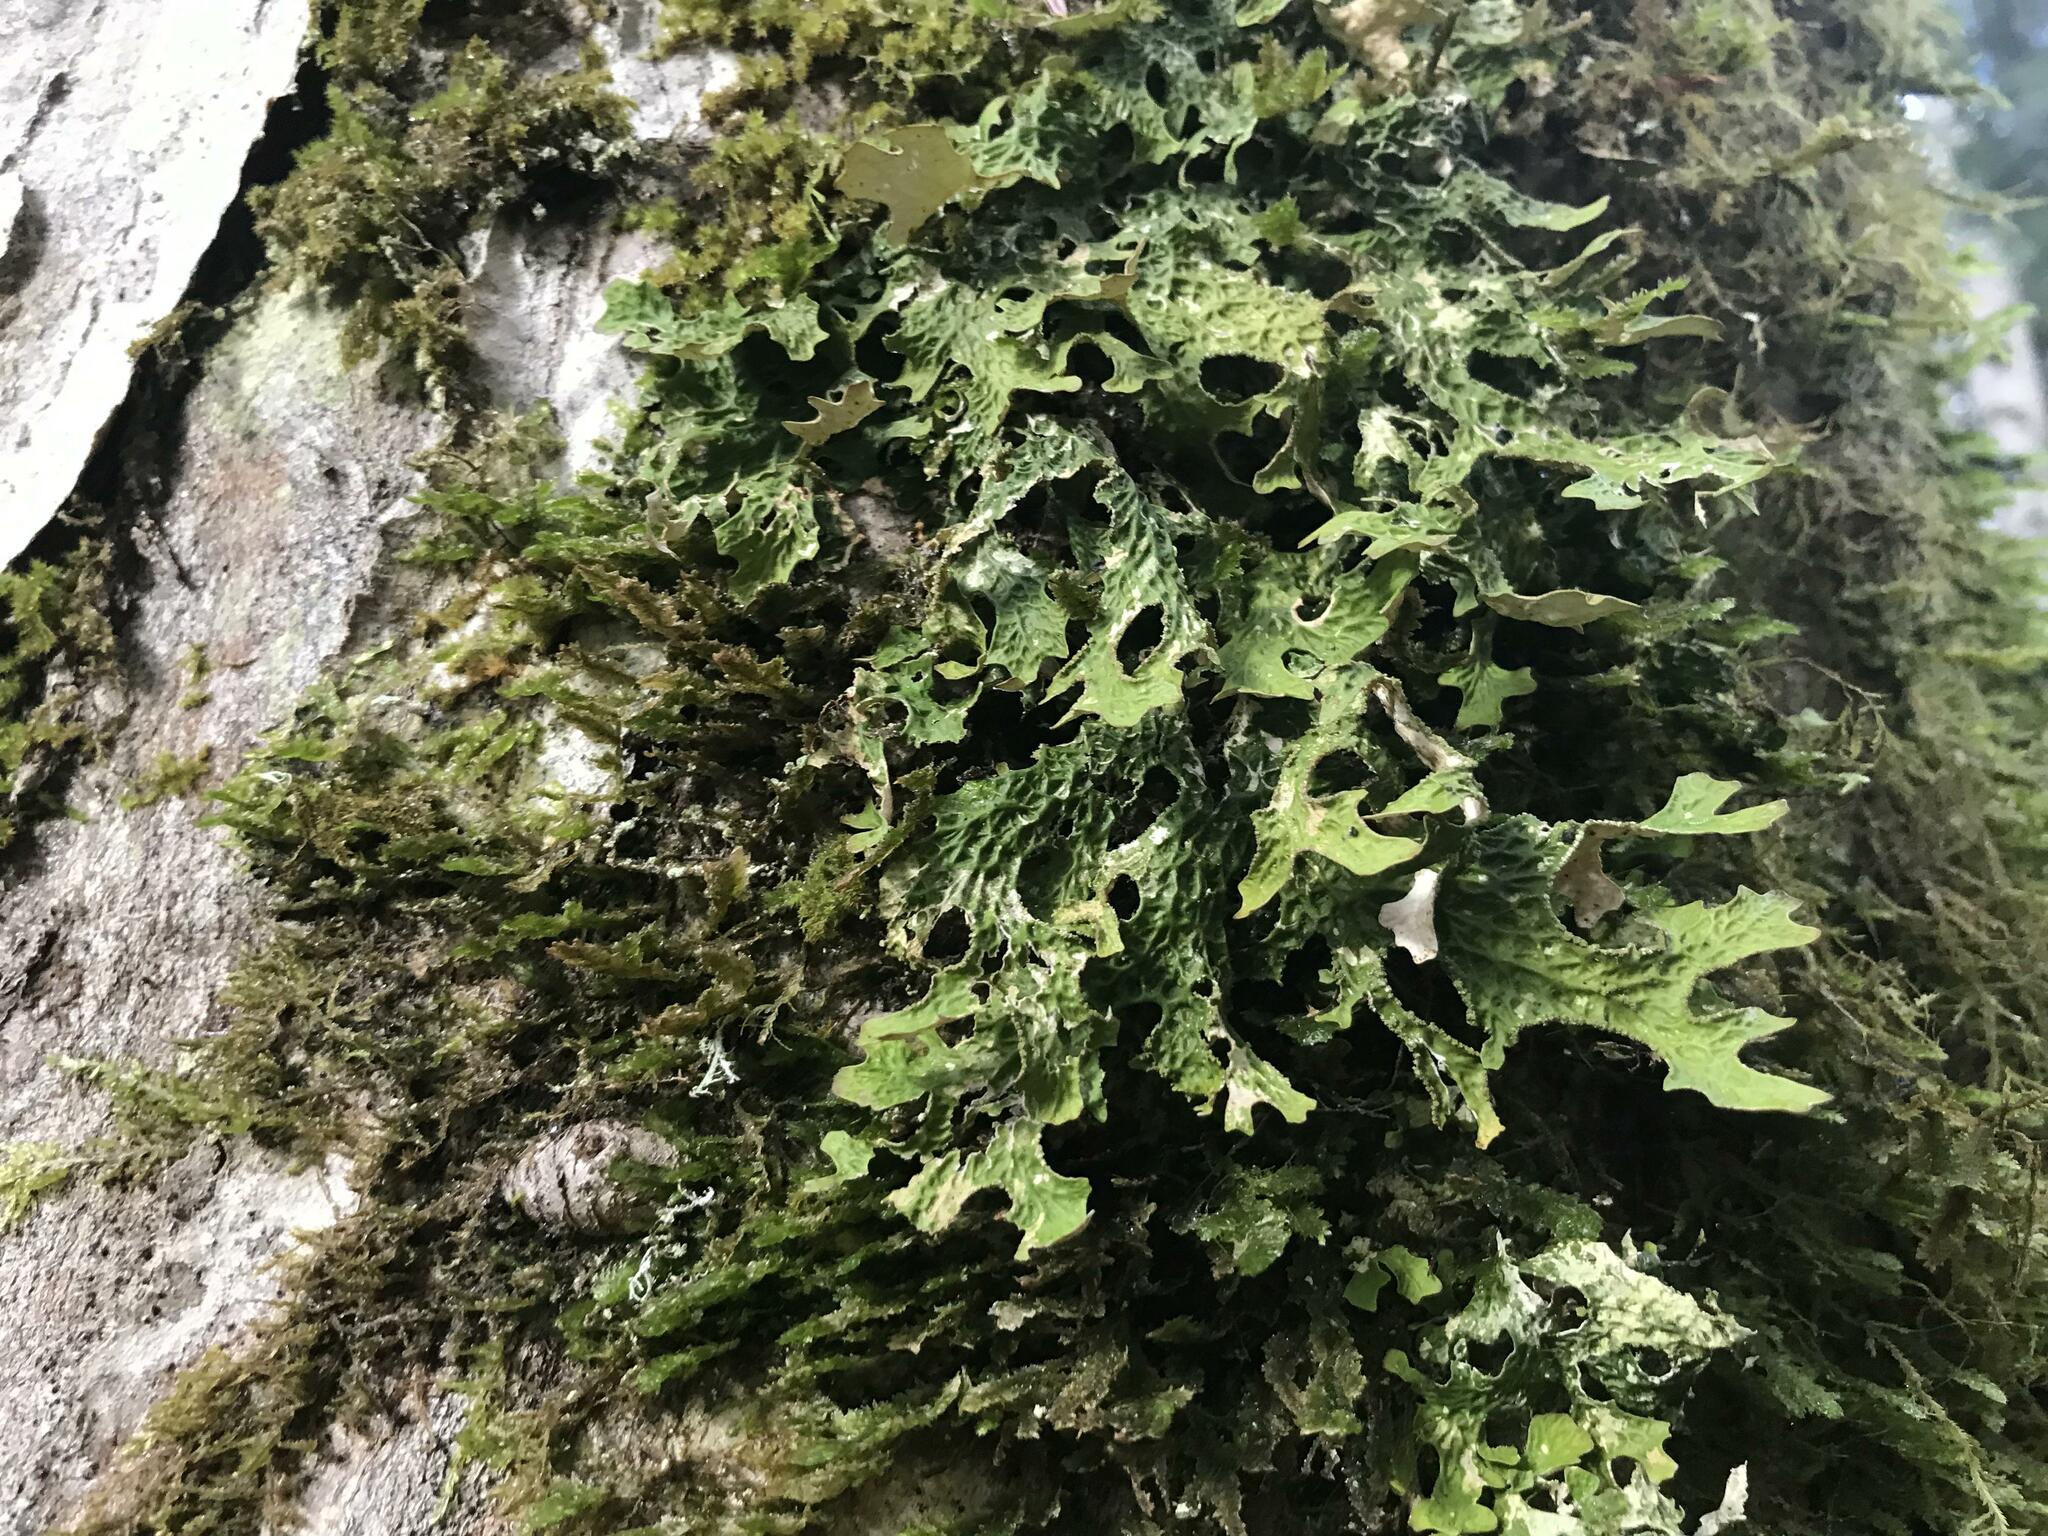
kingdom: Fungi
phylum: Ascomycota
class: Lecanoromycetes
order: Peltigerales
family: Lobariaceae
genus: Lobaria
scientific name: Lobaria pulmonaria
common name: Lungwort
